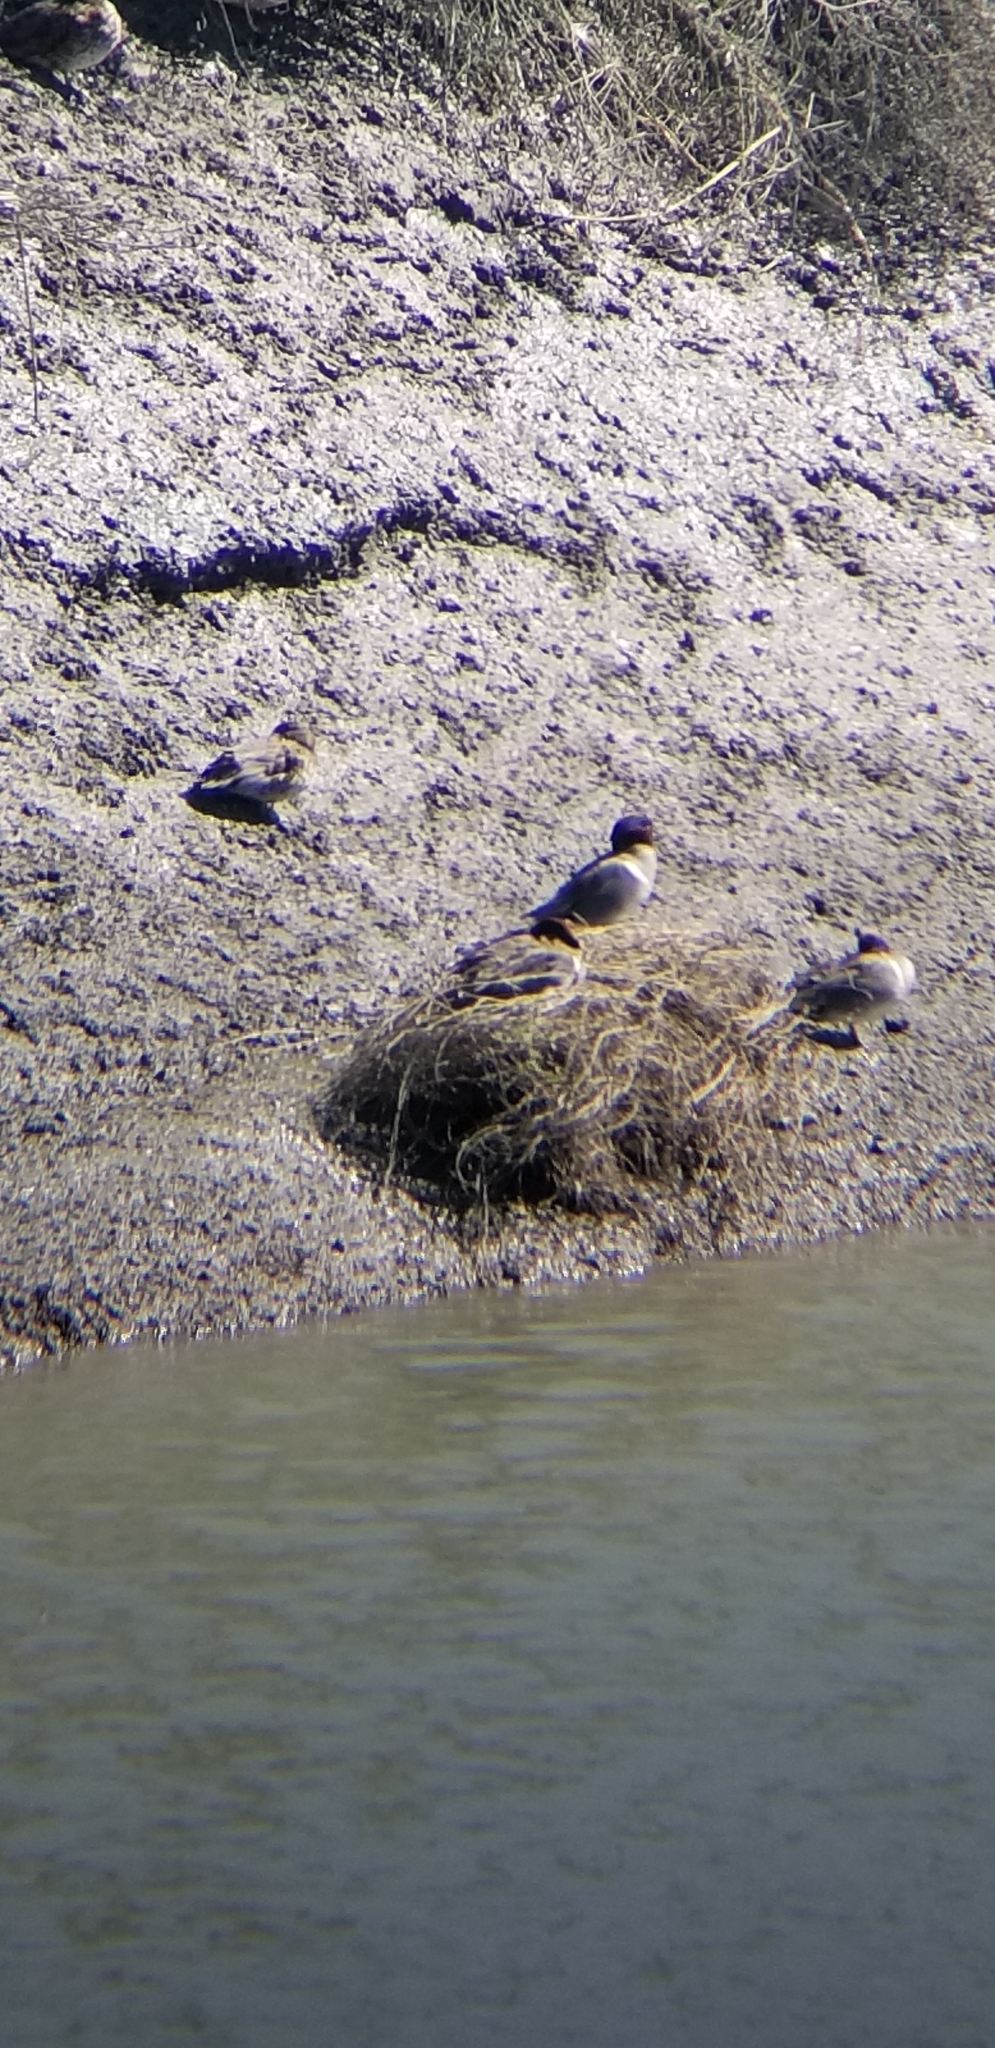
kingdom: Animalia
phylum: Chordata
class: Aves
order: Anseriformes
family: Anatidae
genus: Anas
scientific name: Anas crecca
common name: Eurasian teal
